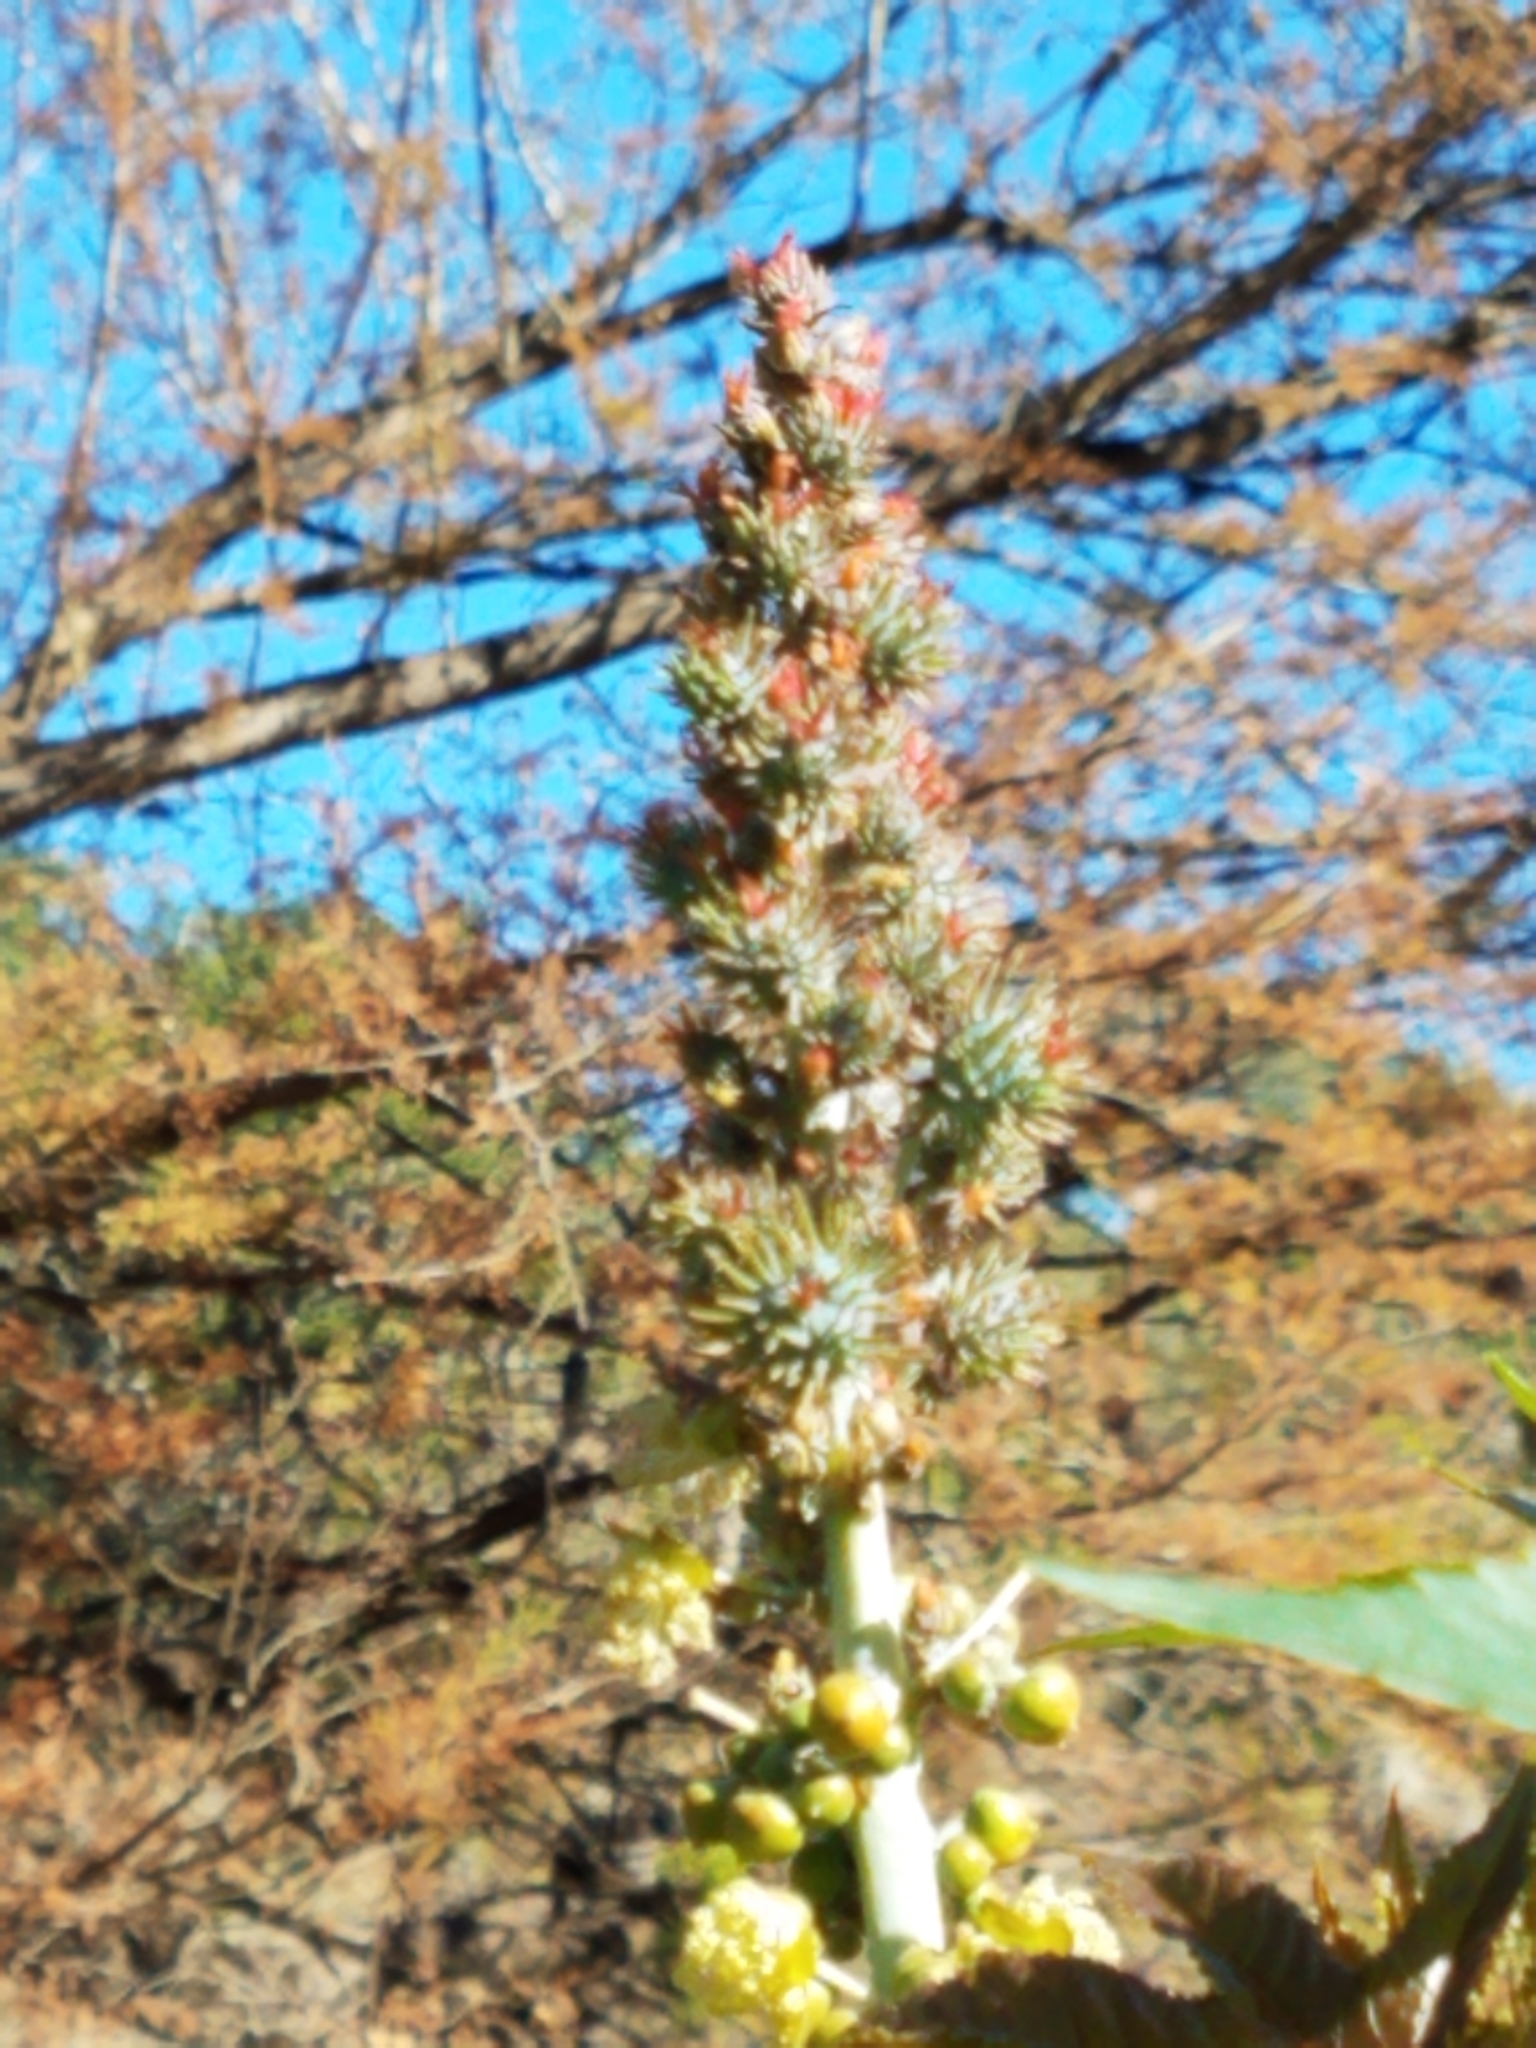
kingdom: Plantae
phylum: Tracheophyta
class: Magnoliopsida
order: Malpighiales
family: Euphorbiaceae
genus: Ricinus
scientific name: Ricinus communis
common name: Castor-oil-plant
